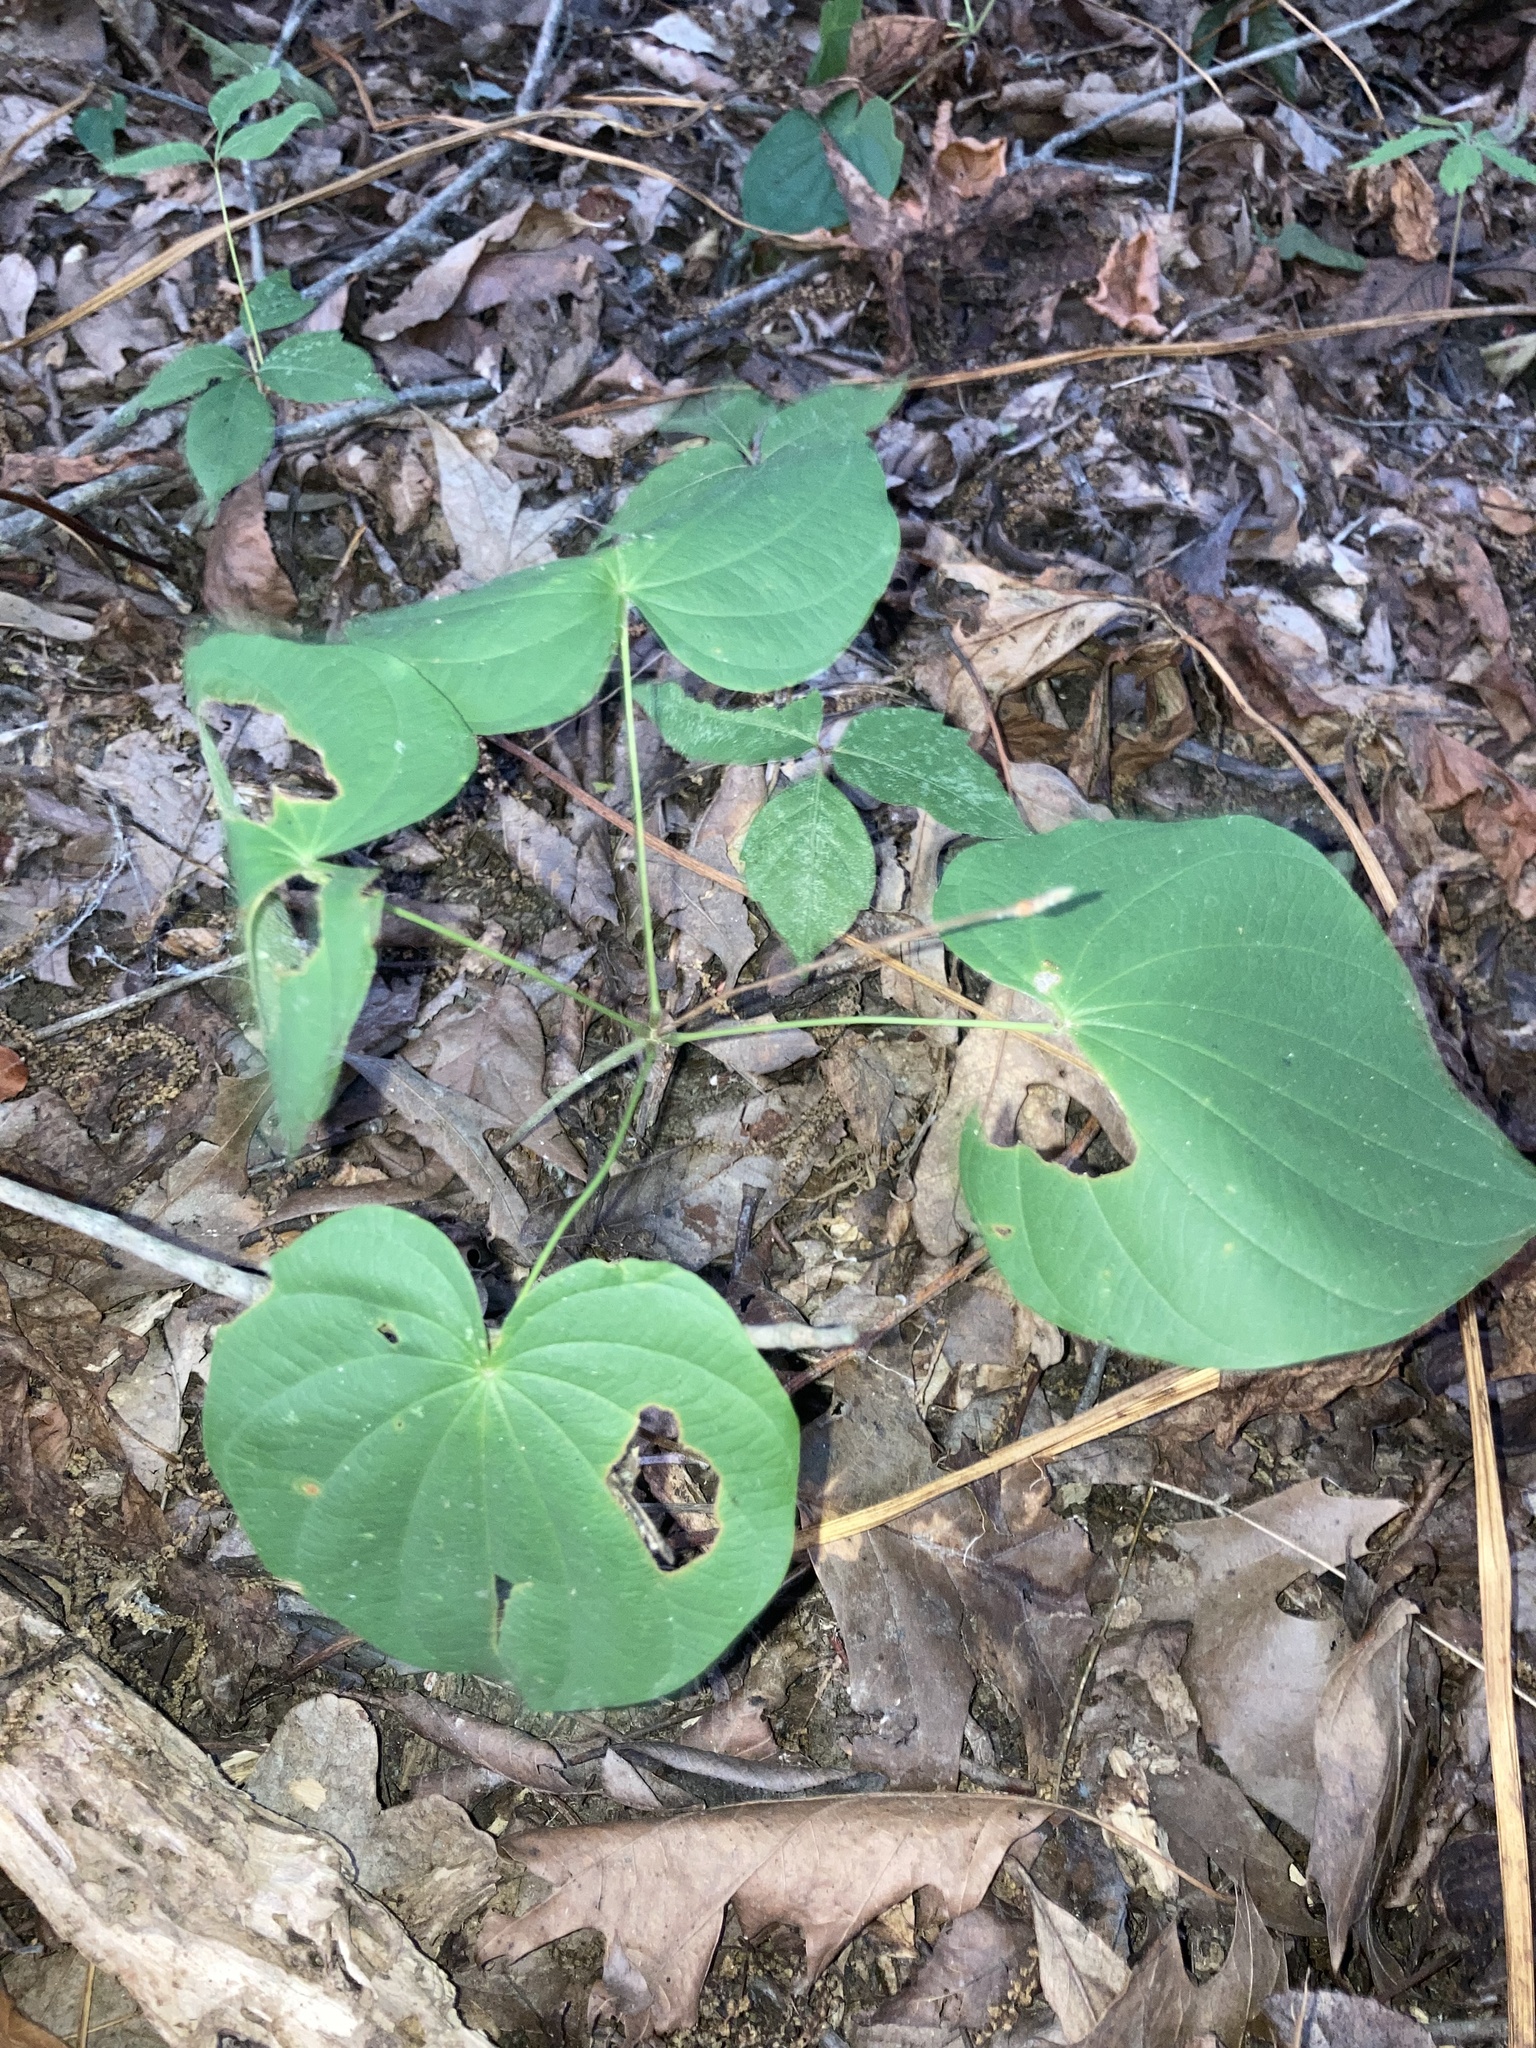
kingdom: Plantae
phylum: Tracheophyta
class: Liliopsida
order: Dioscoreales
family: Dioscoreaceae
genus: Dioscorea
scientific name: Dioscorea villosa
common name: Wild yam
